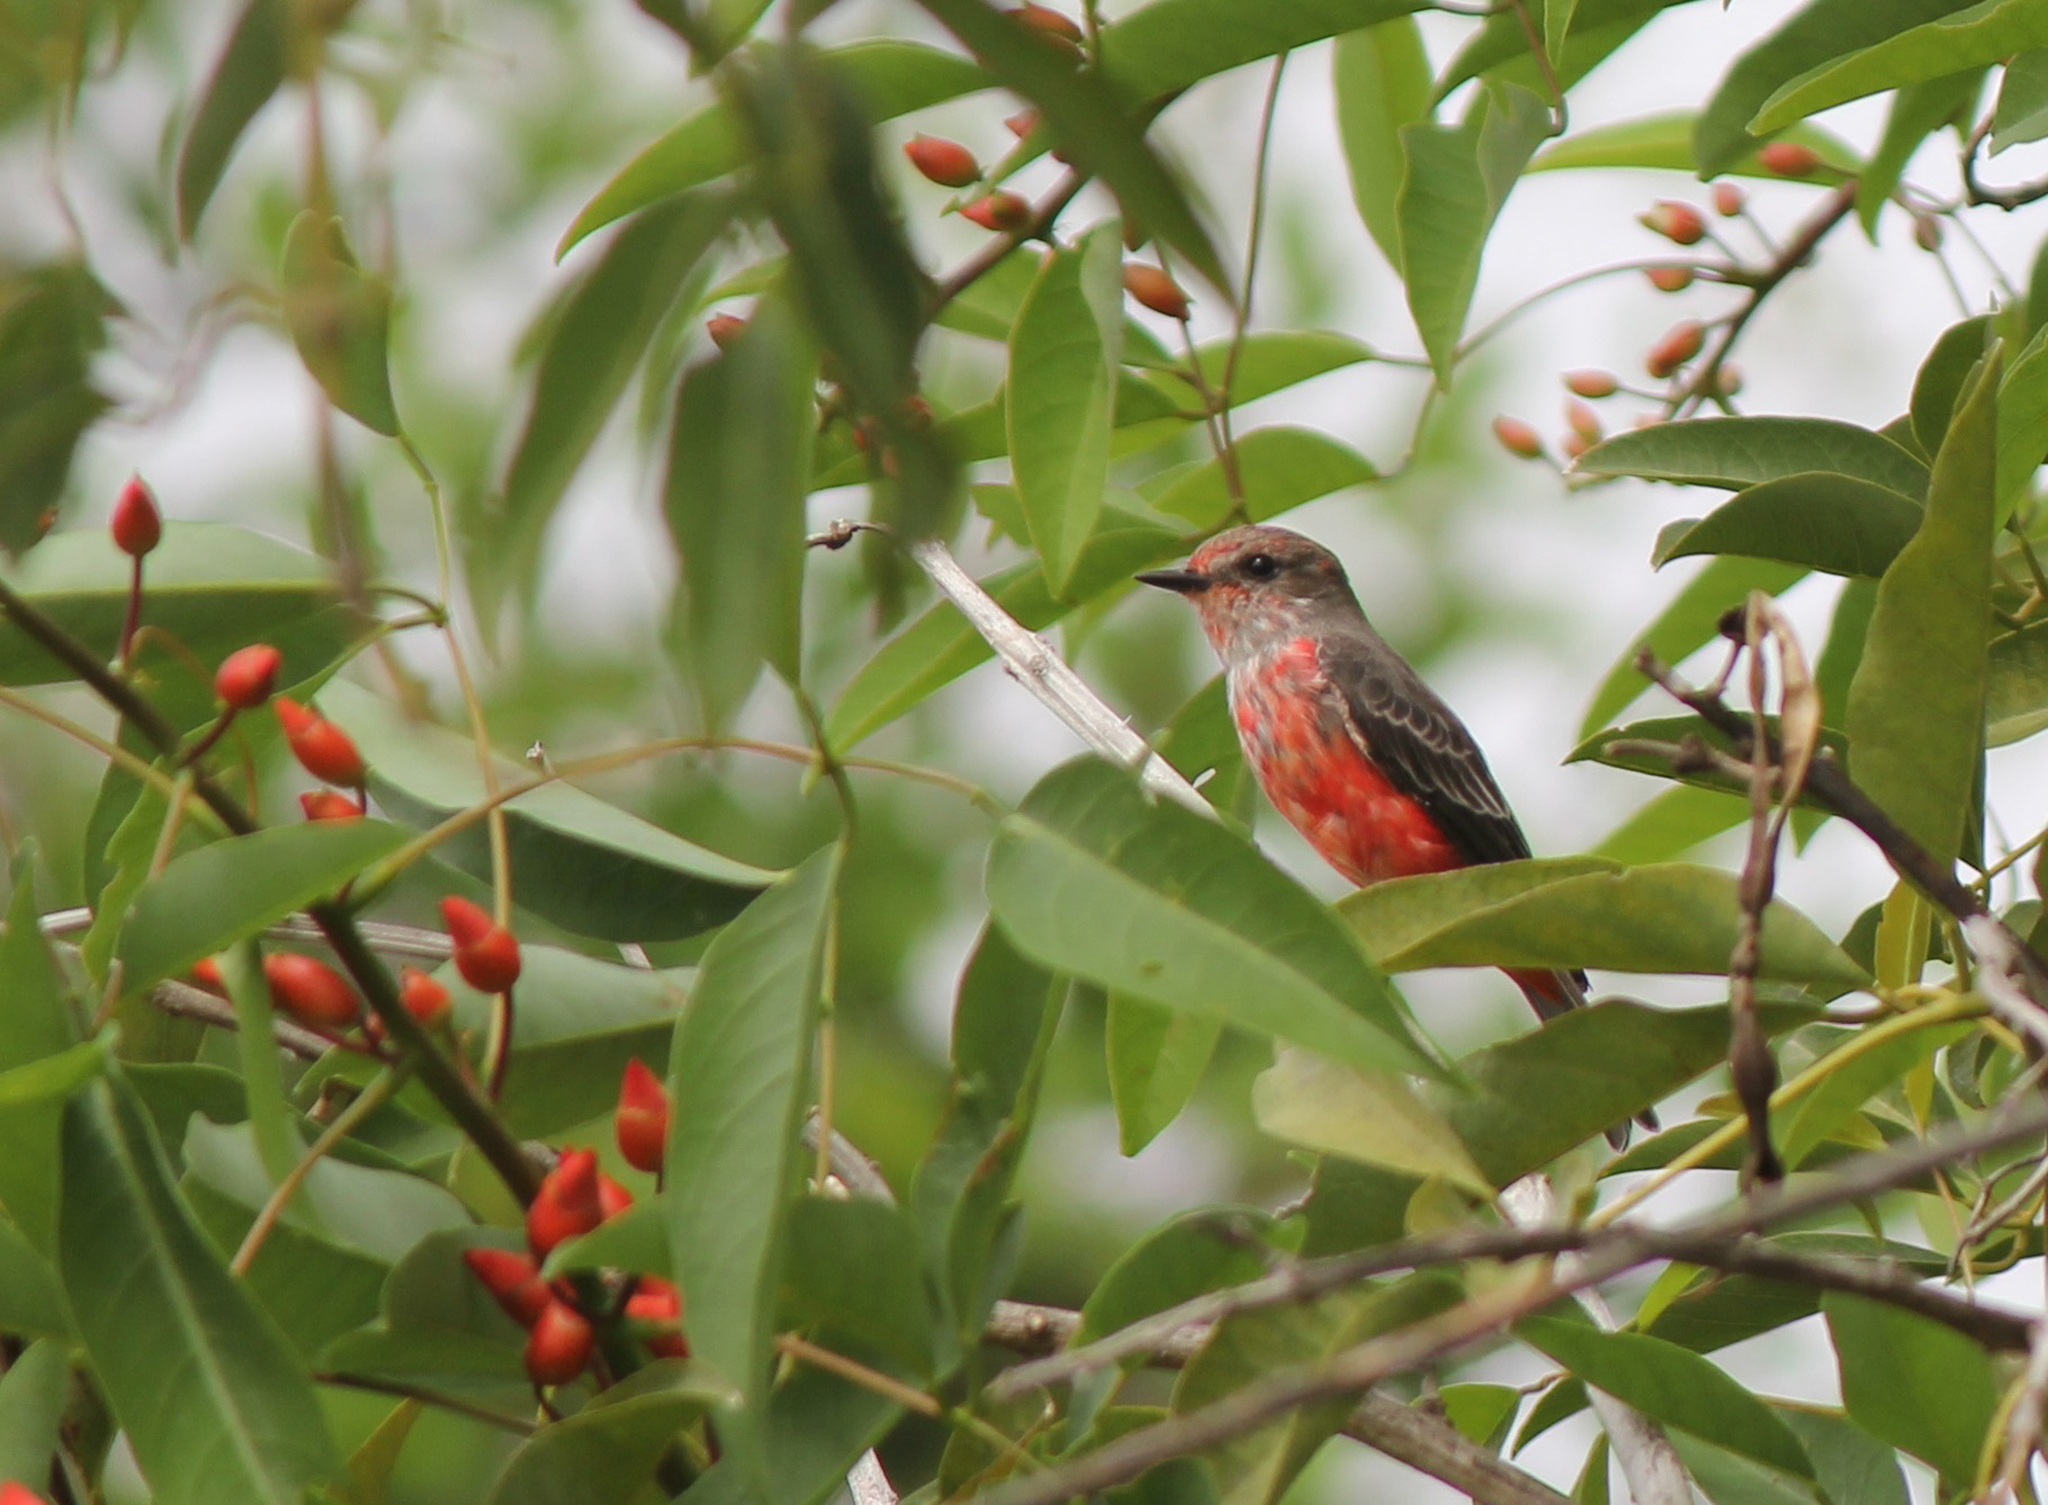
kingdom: Animalia
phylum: Chordata
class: Aves
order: Passeriformes
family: Tyrannidae
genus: Pyrocephalus
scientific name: Pyrocephalus rubinus
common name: Vermilion flycatcher
